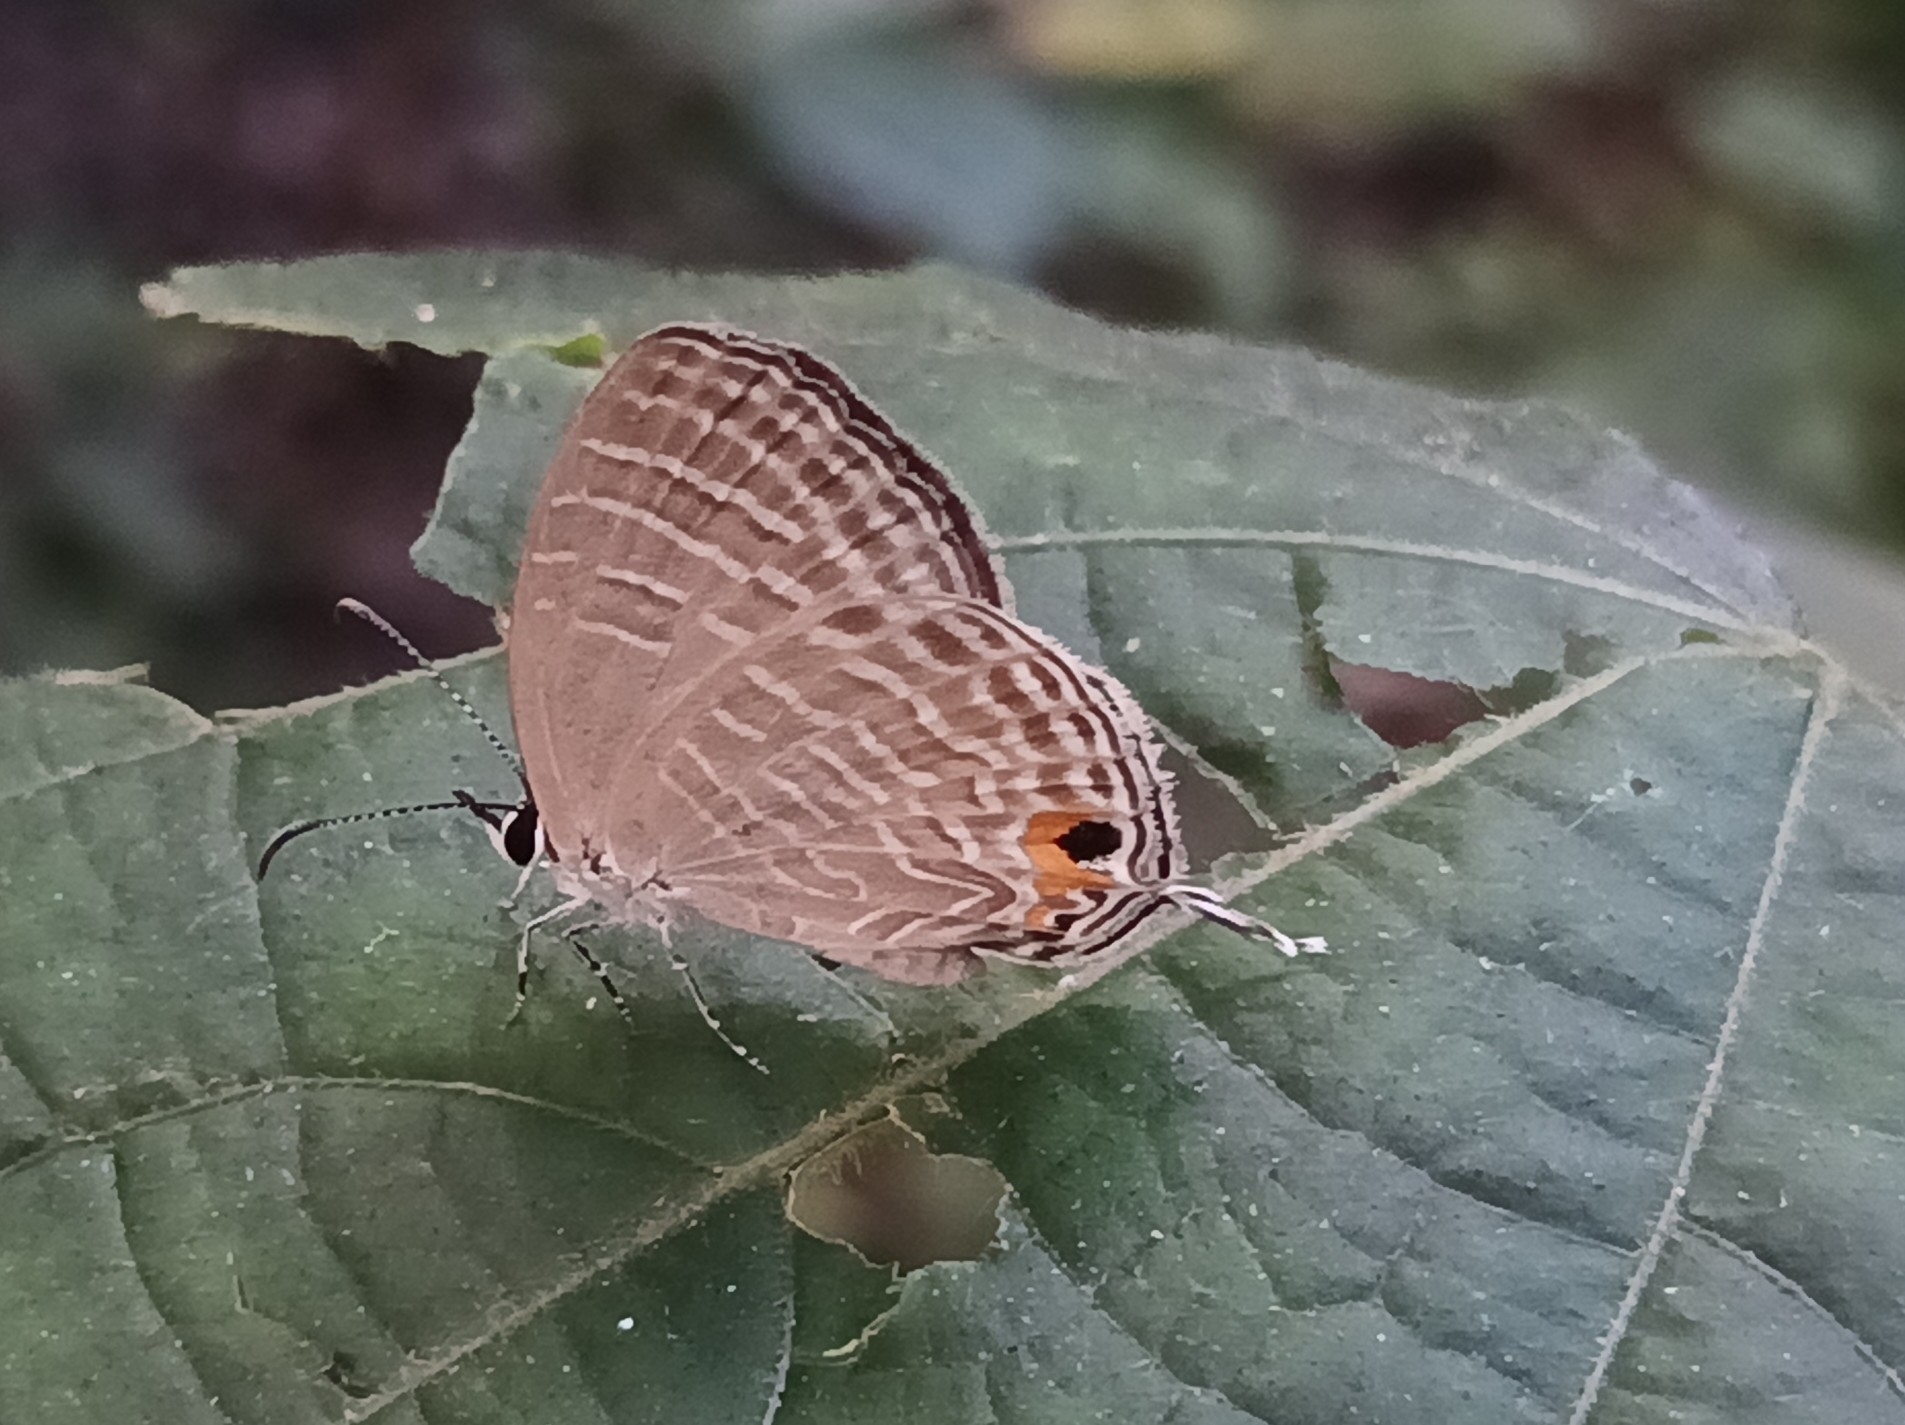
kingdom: Animalia
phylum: Arthropoda
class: Insecta
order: Lepidoptera
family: Lycaenidae
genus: Jamides
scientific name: Jamides celeno
